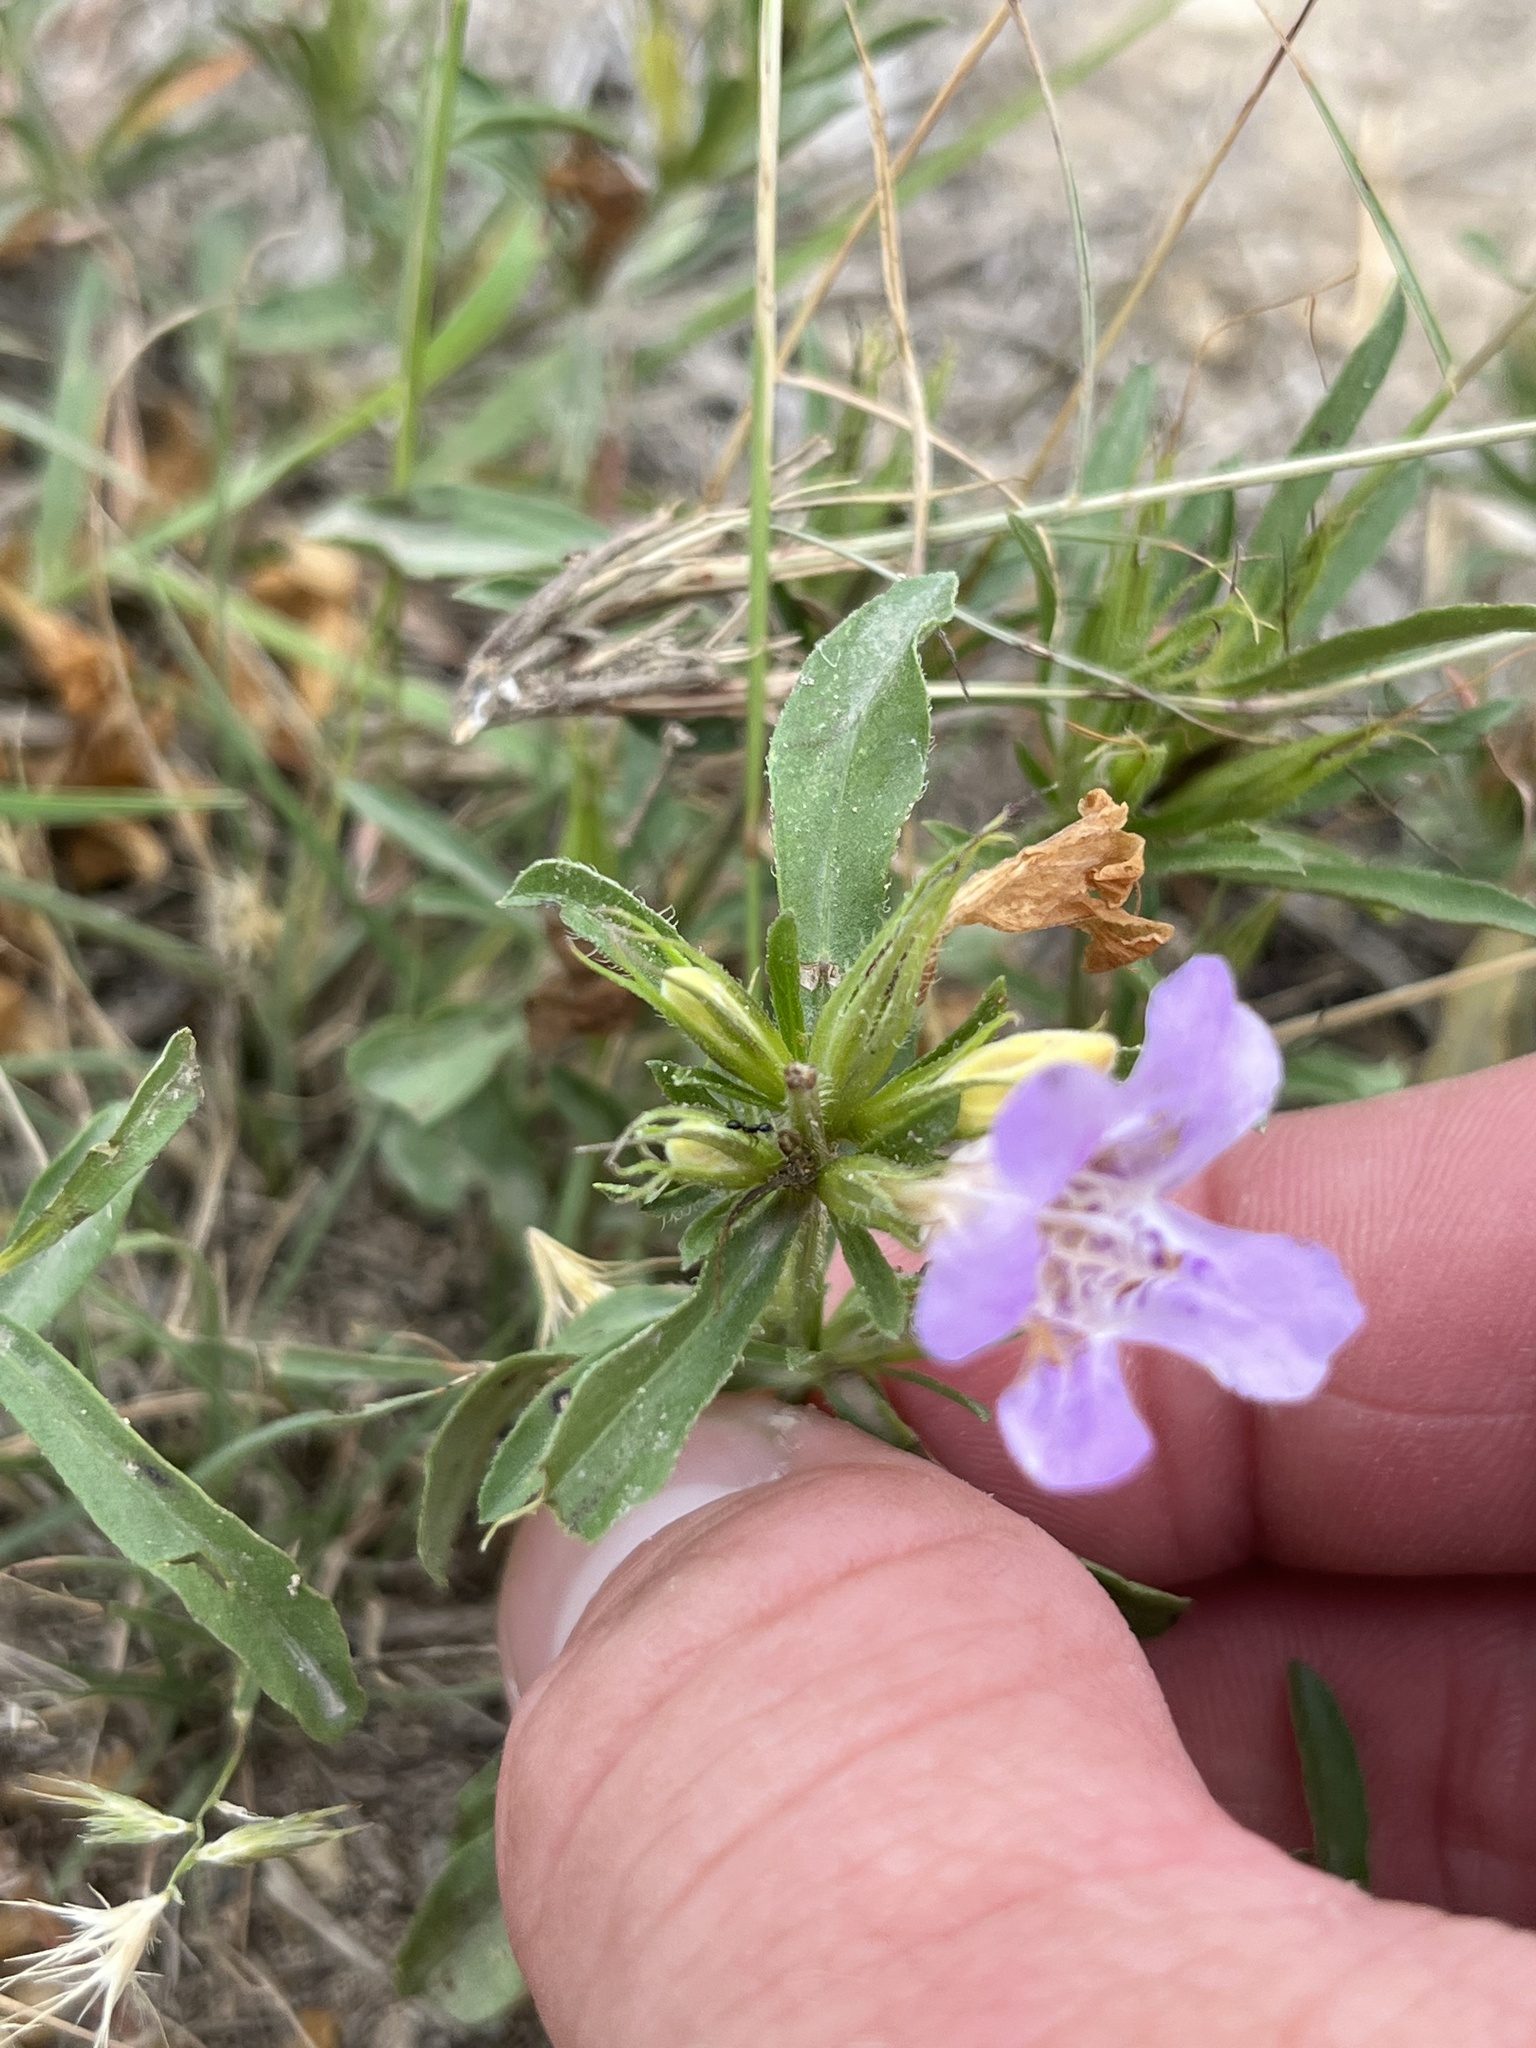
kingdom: Plantae
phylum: Tracheophyta
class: Magnoliopsida
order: Lamiales
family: Acanthaceae
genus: Dyschoriste
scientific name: Dyschoriste linearis
